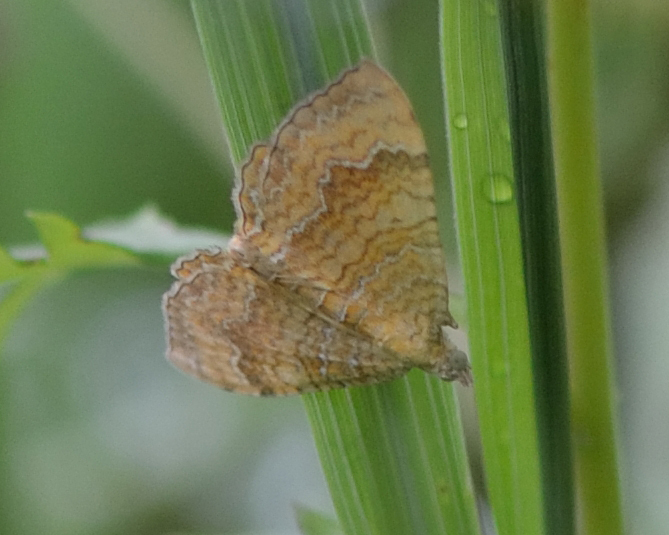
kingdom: Animalia
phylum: Arthropoda
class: Insecta
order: Lepidoptera
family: Geometridae
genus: Camptogramma
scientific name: Camptogramma bilineata
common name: Yellow shell
